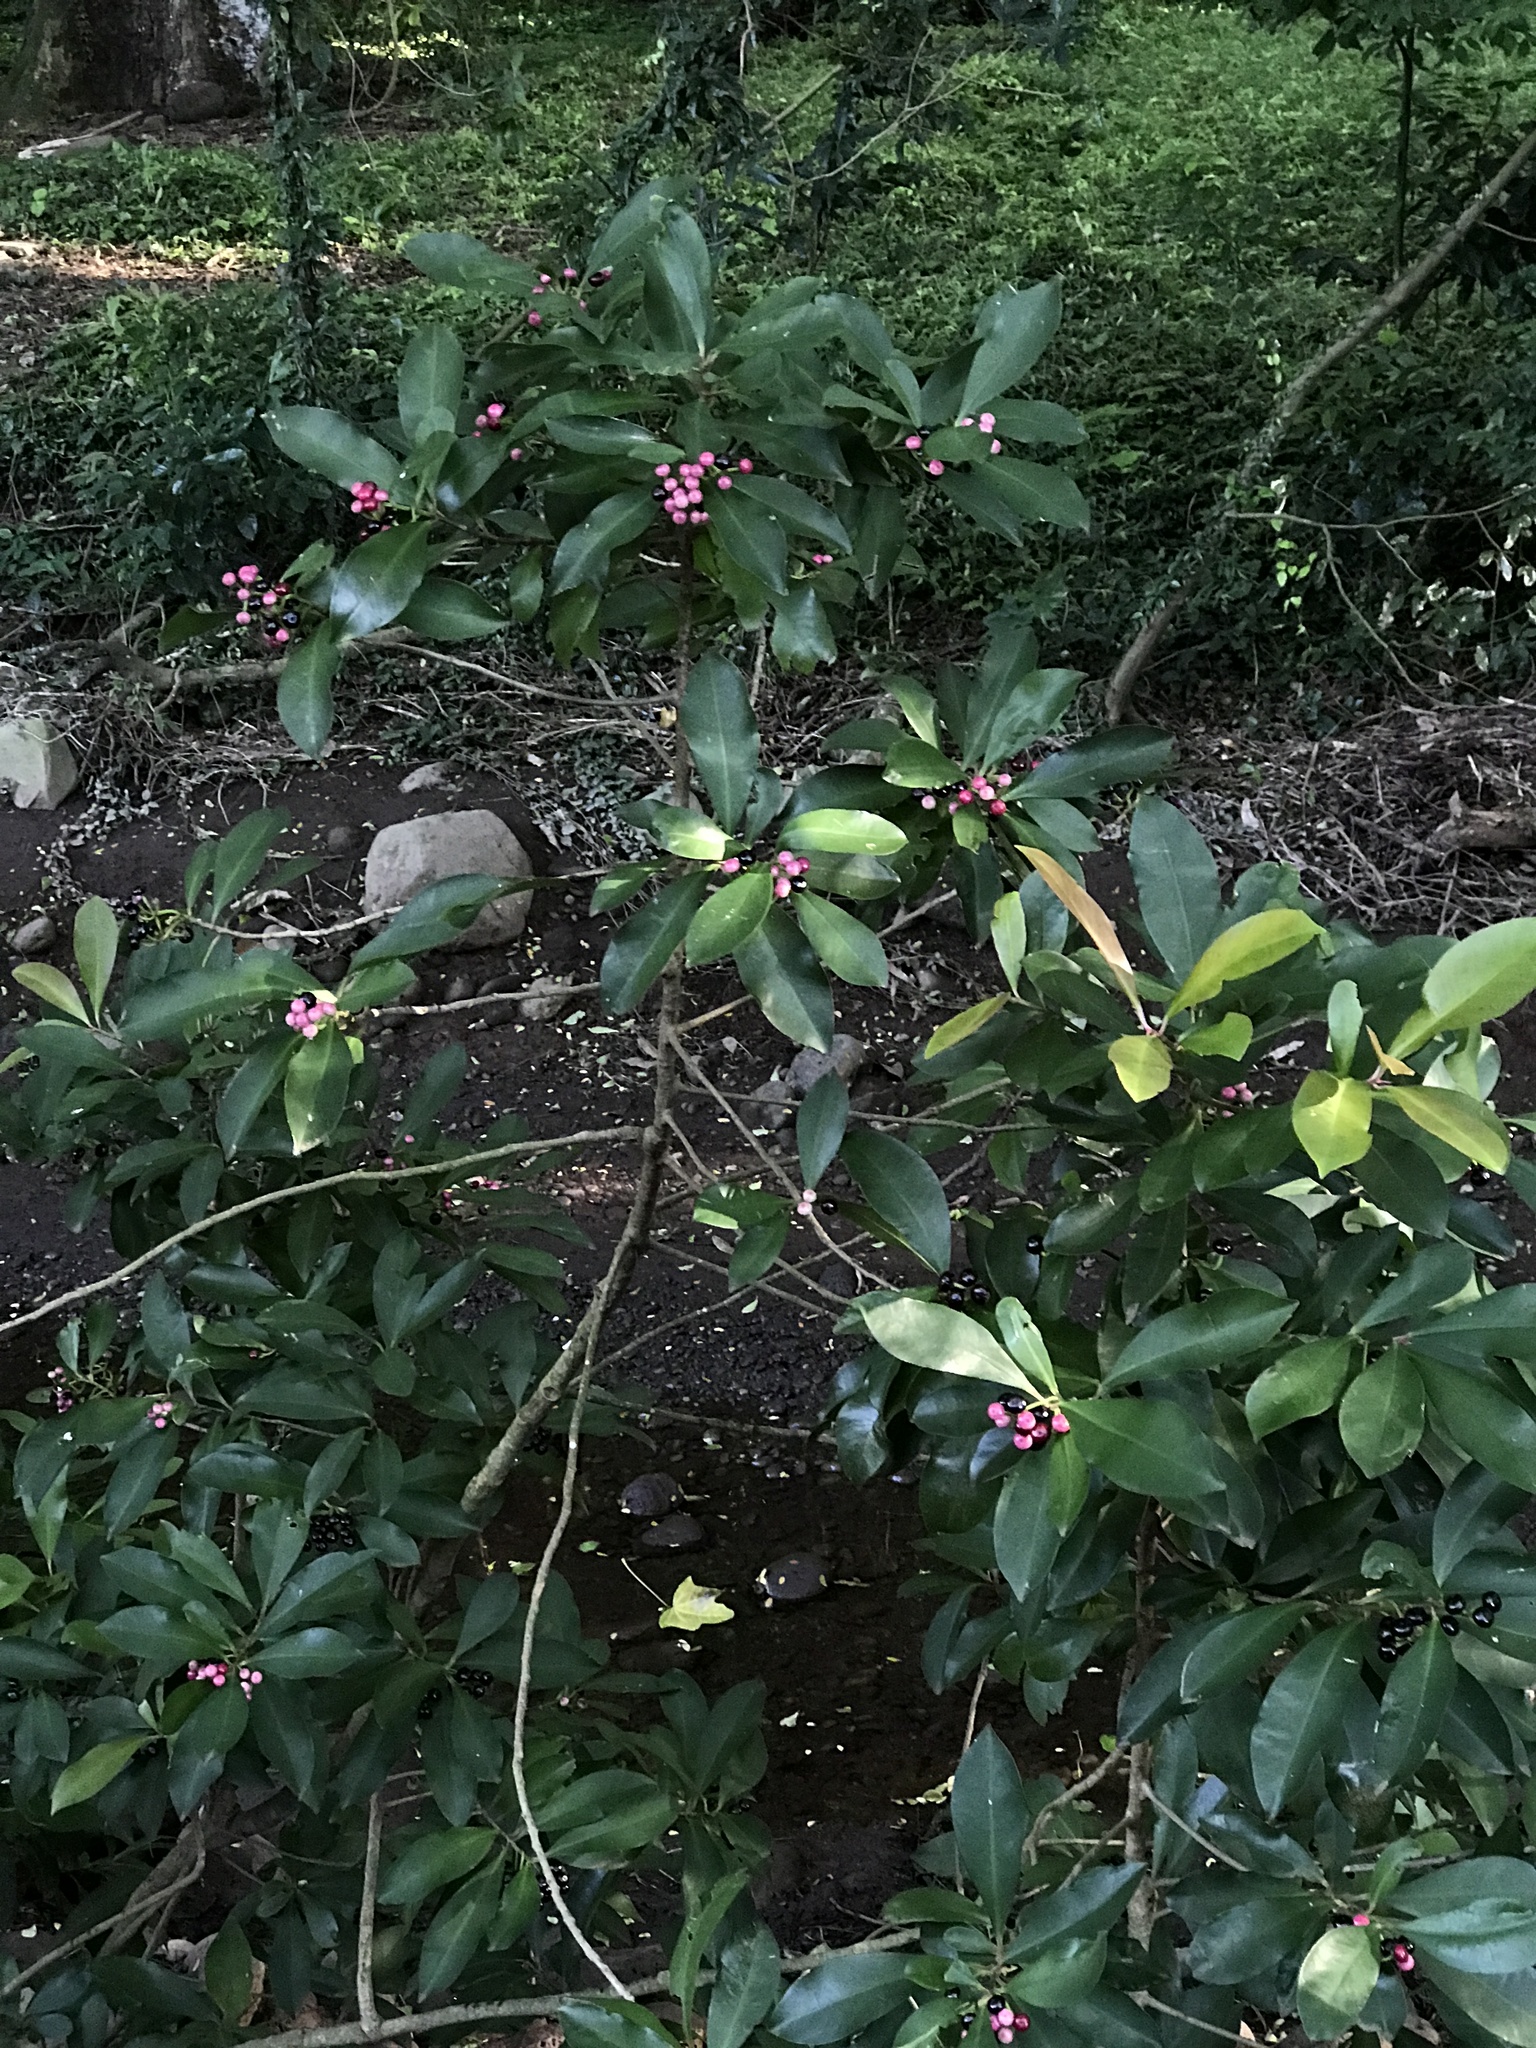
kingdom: Plantae
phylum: Tracheophyta
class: Magnoliopsida
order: Ericales
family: Primulaceae
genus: Ardisia
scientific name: Ardisia elliptica
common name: Shoebutton
